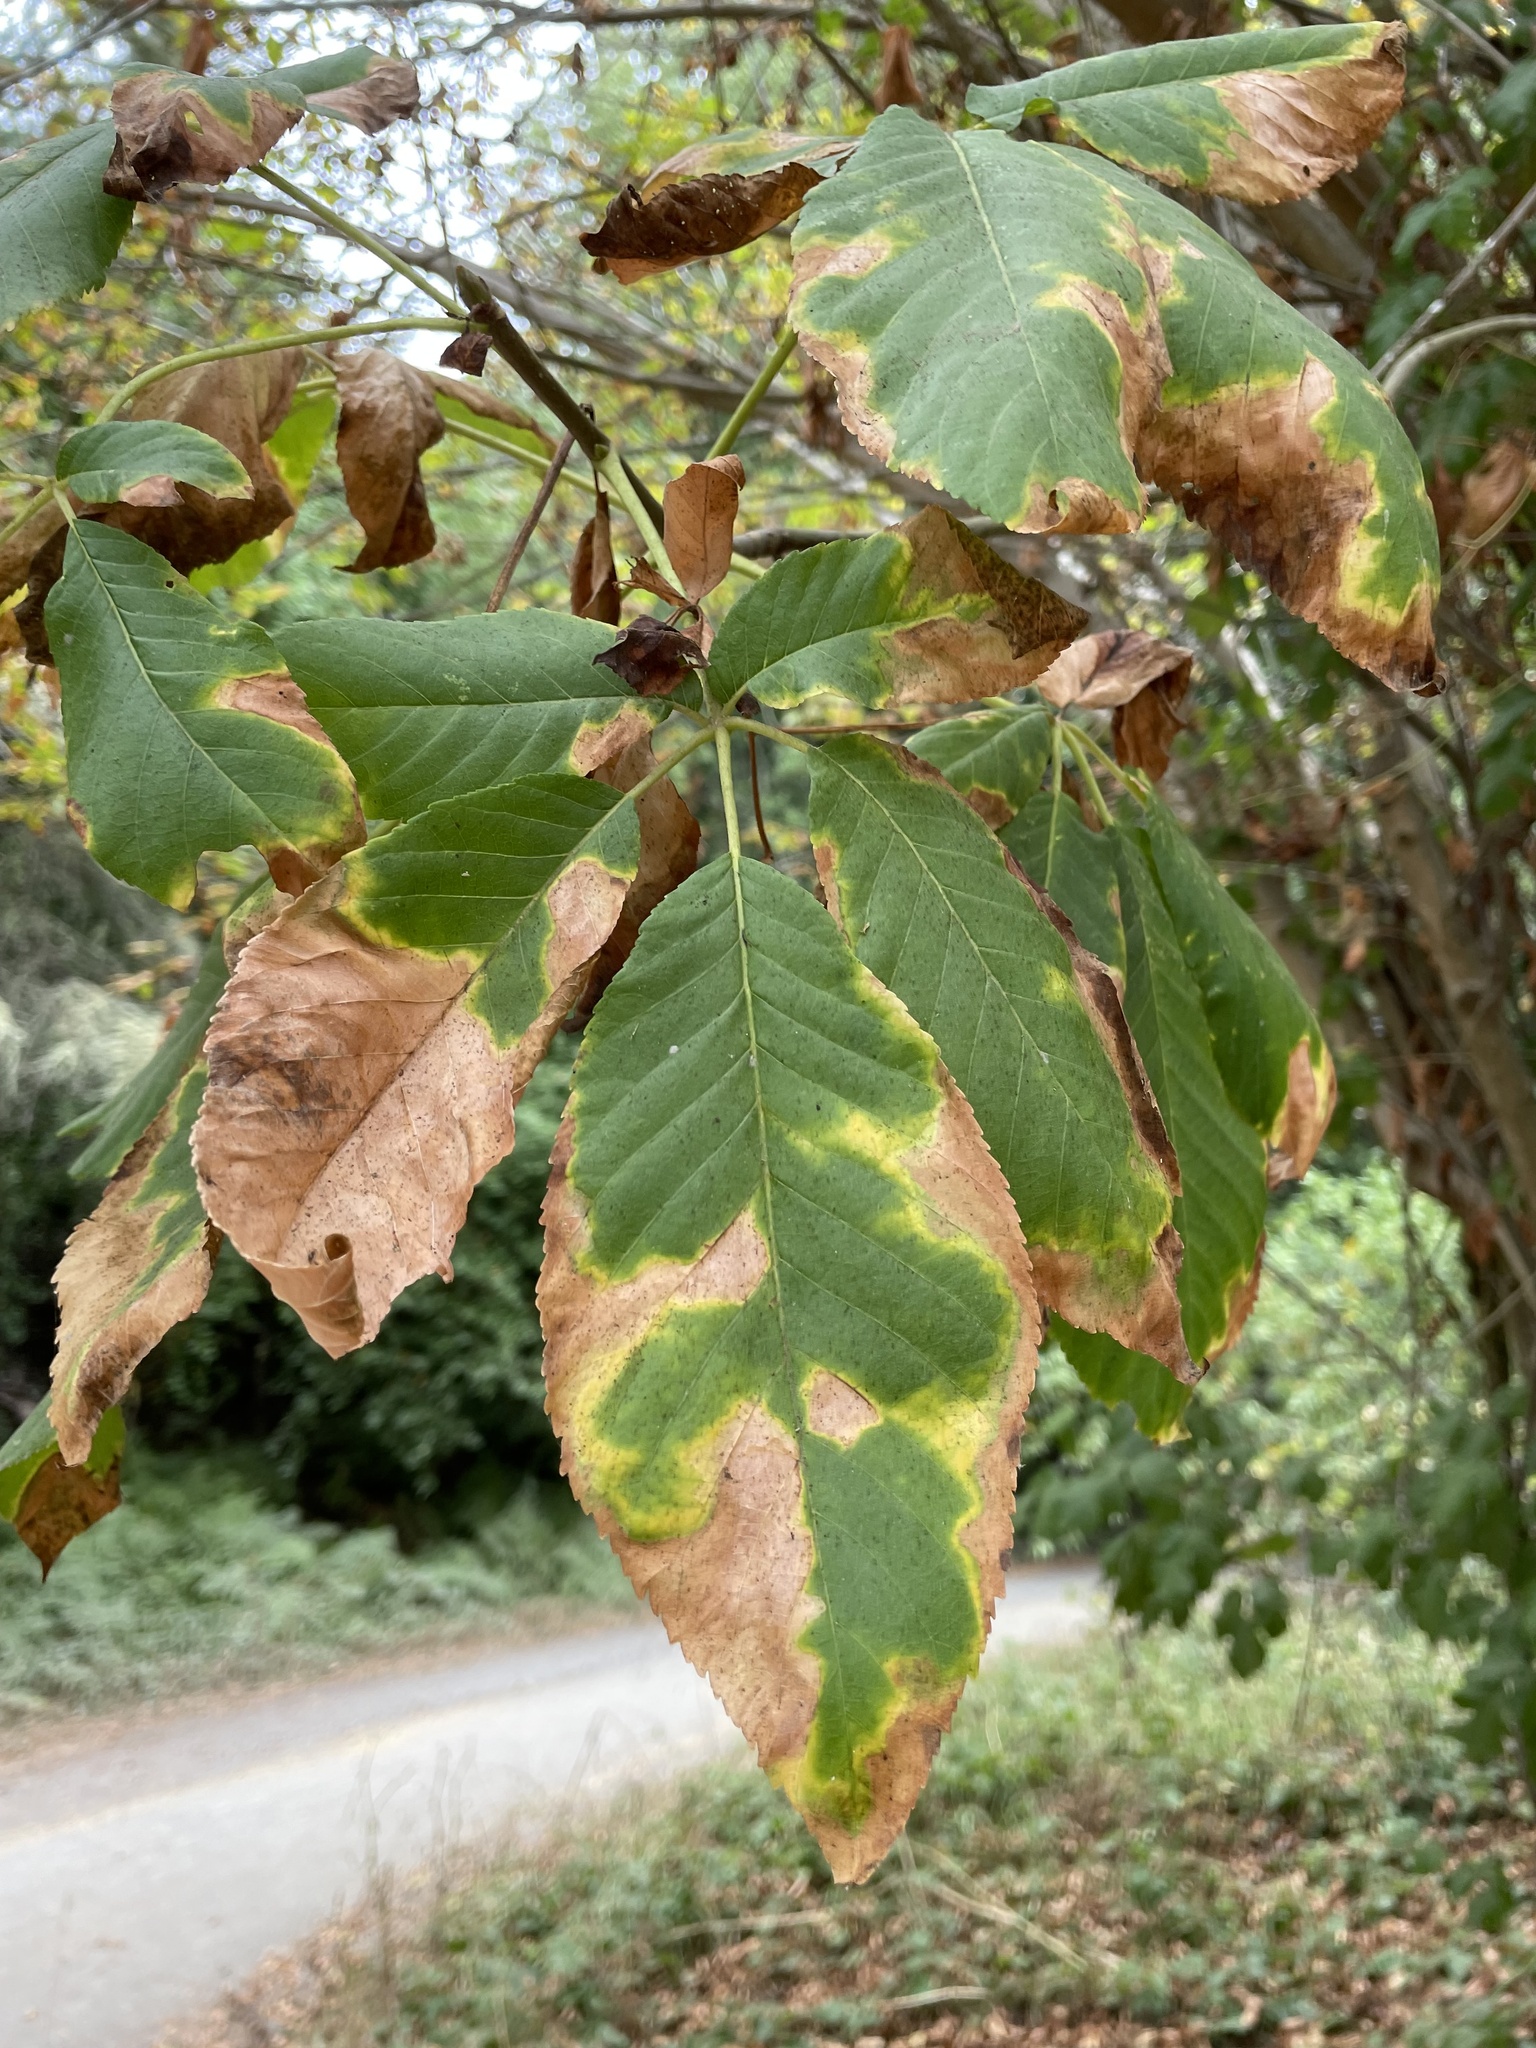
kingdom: Plantae
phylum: Tracheophyta
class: Magnoliopsida
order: Sapindales
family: Sapindaceae
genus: Aesculus
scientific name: Aesculus californica
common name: California buckeye
